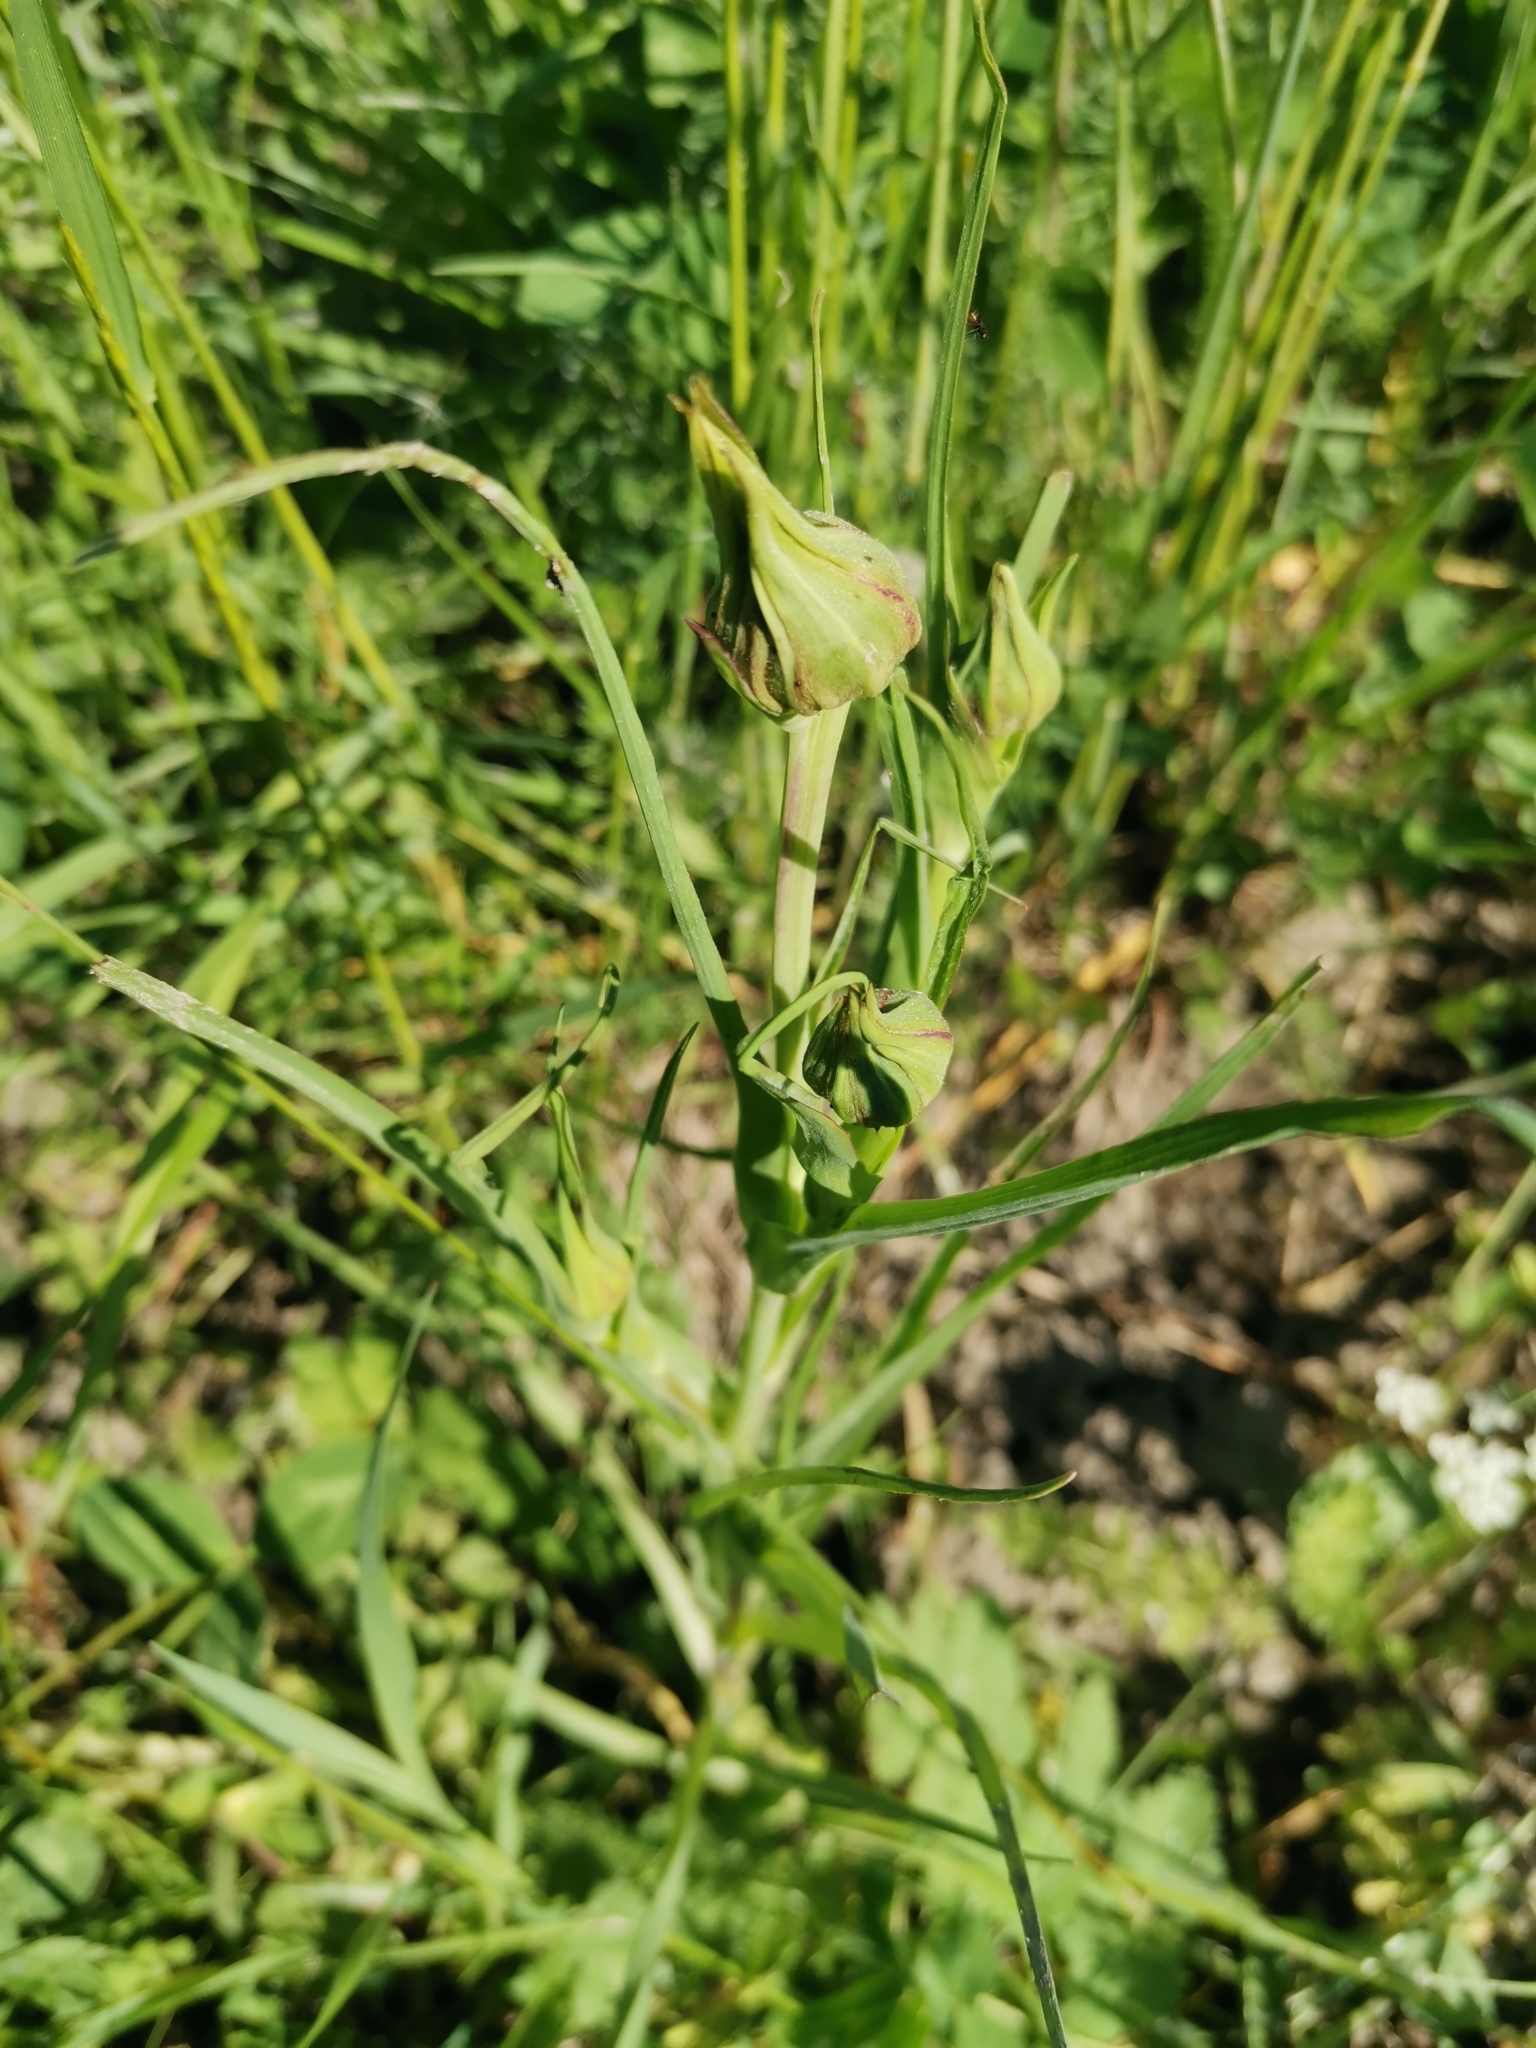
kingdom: Plantae
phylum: Tracheophyta
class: Magnoliopsida
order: Asterales
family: Asteraceae
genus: Tragopogon
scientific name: Tragopogon pratensis
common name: Goat's-beard
